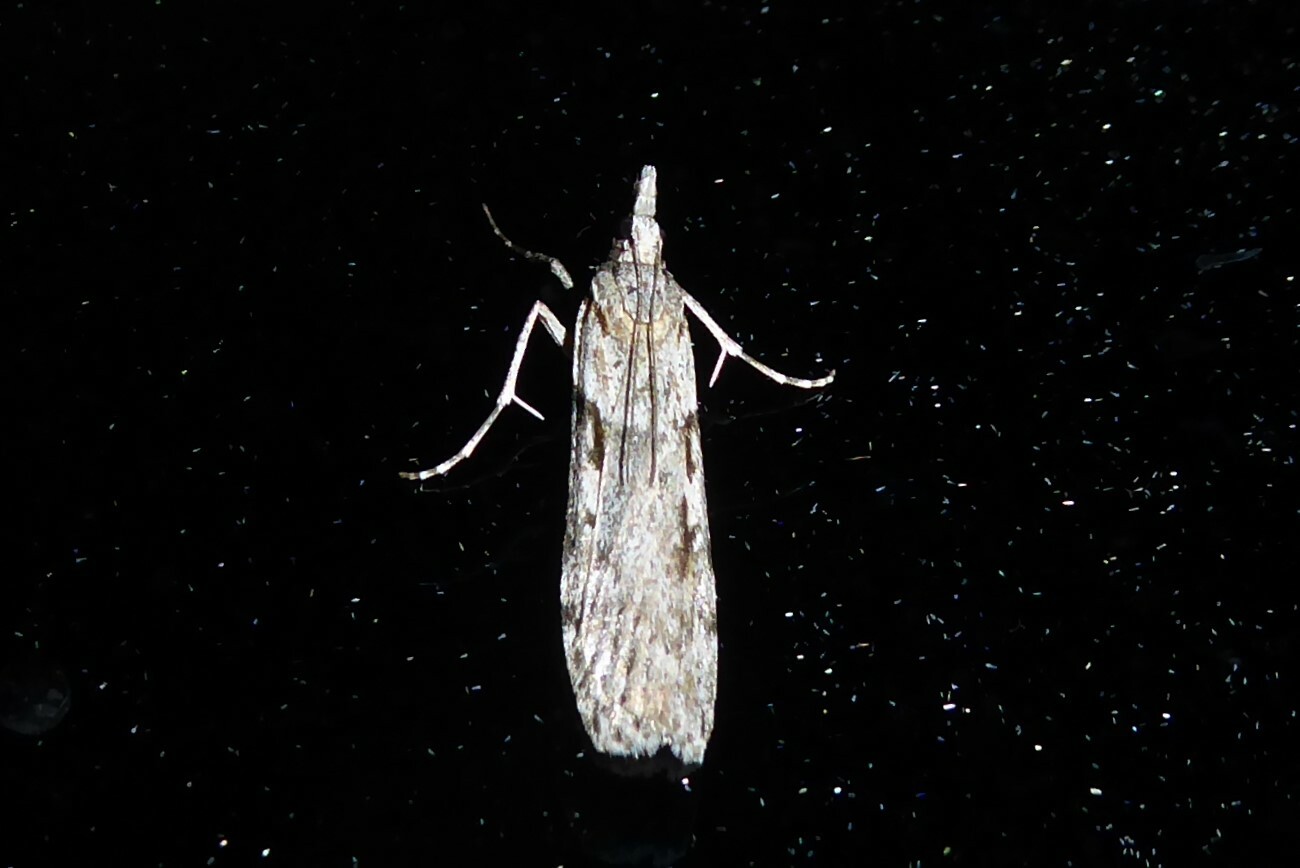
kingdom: Animalia
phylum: Arthropoda
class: Insecta
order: Lepidoptera
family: Crambidae
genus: Scoparia
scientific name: Scoparia halopis
